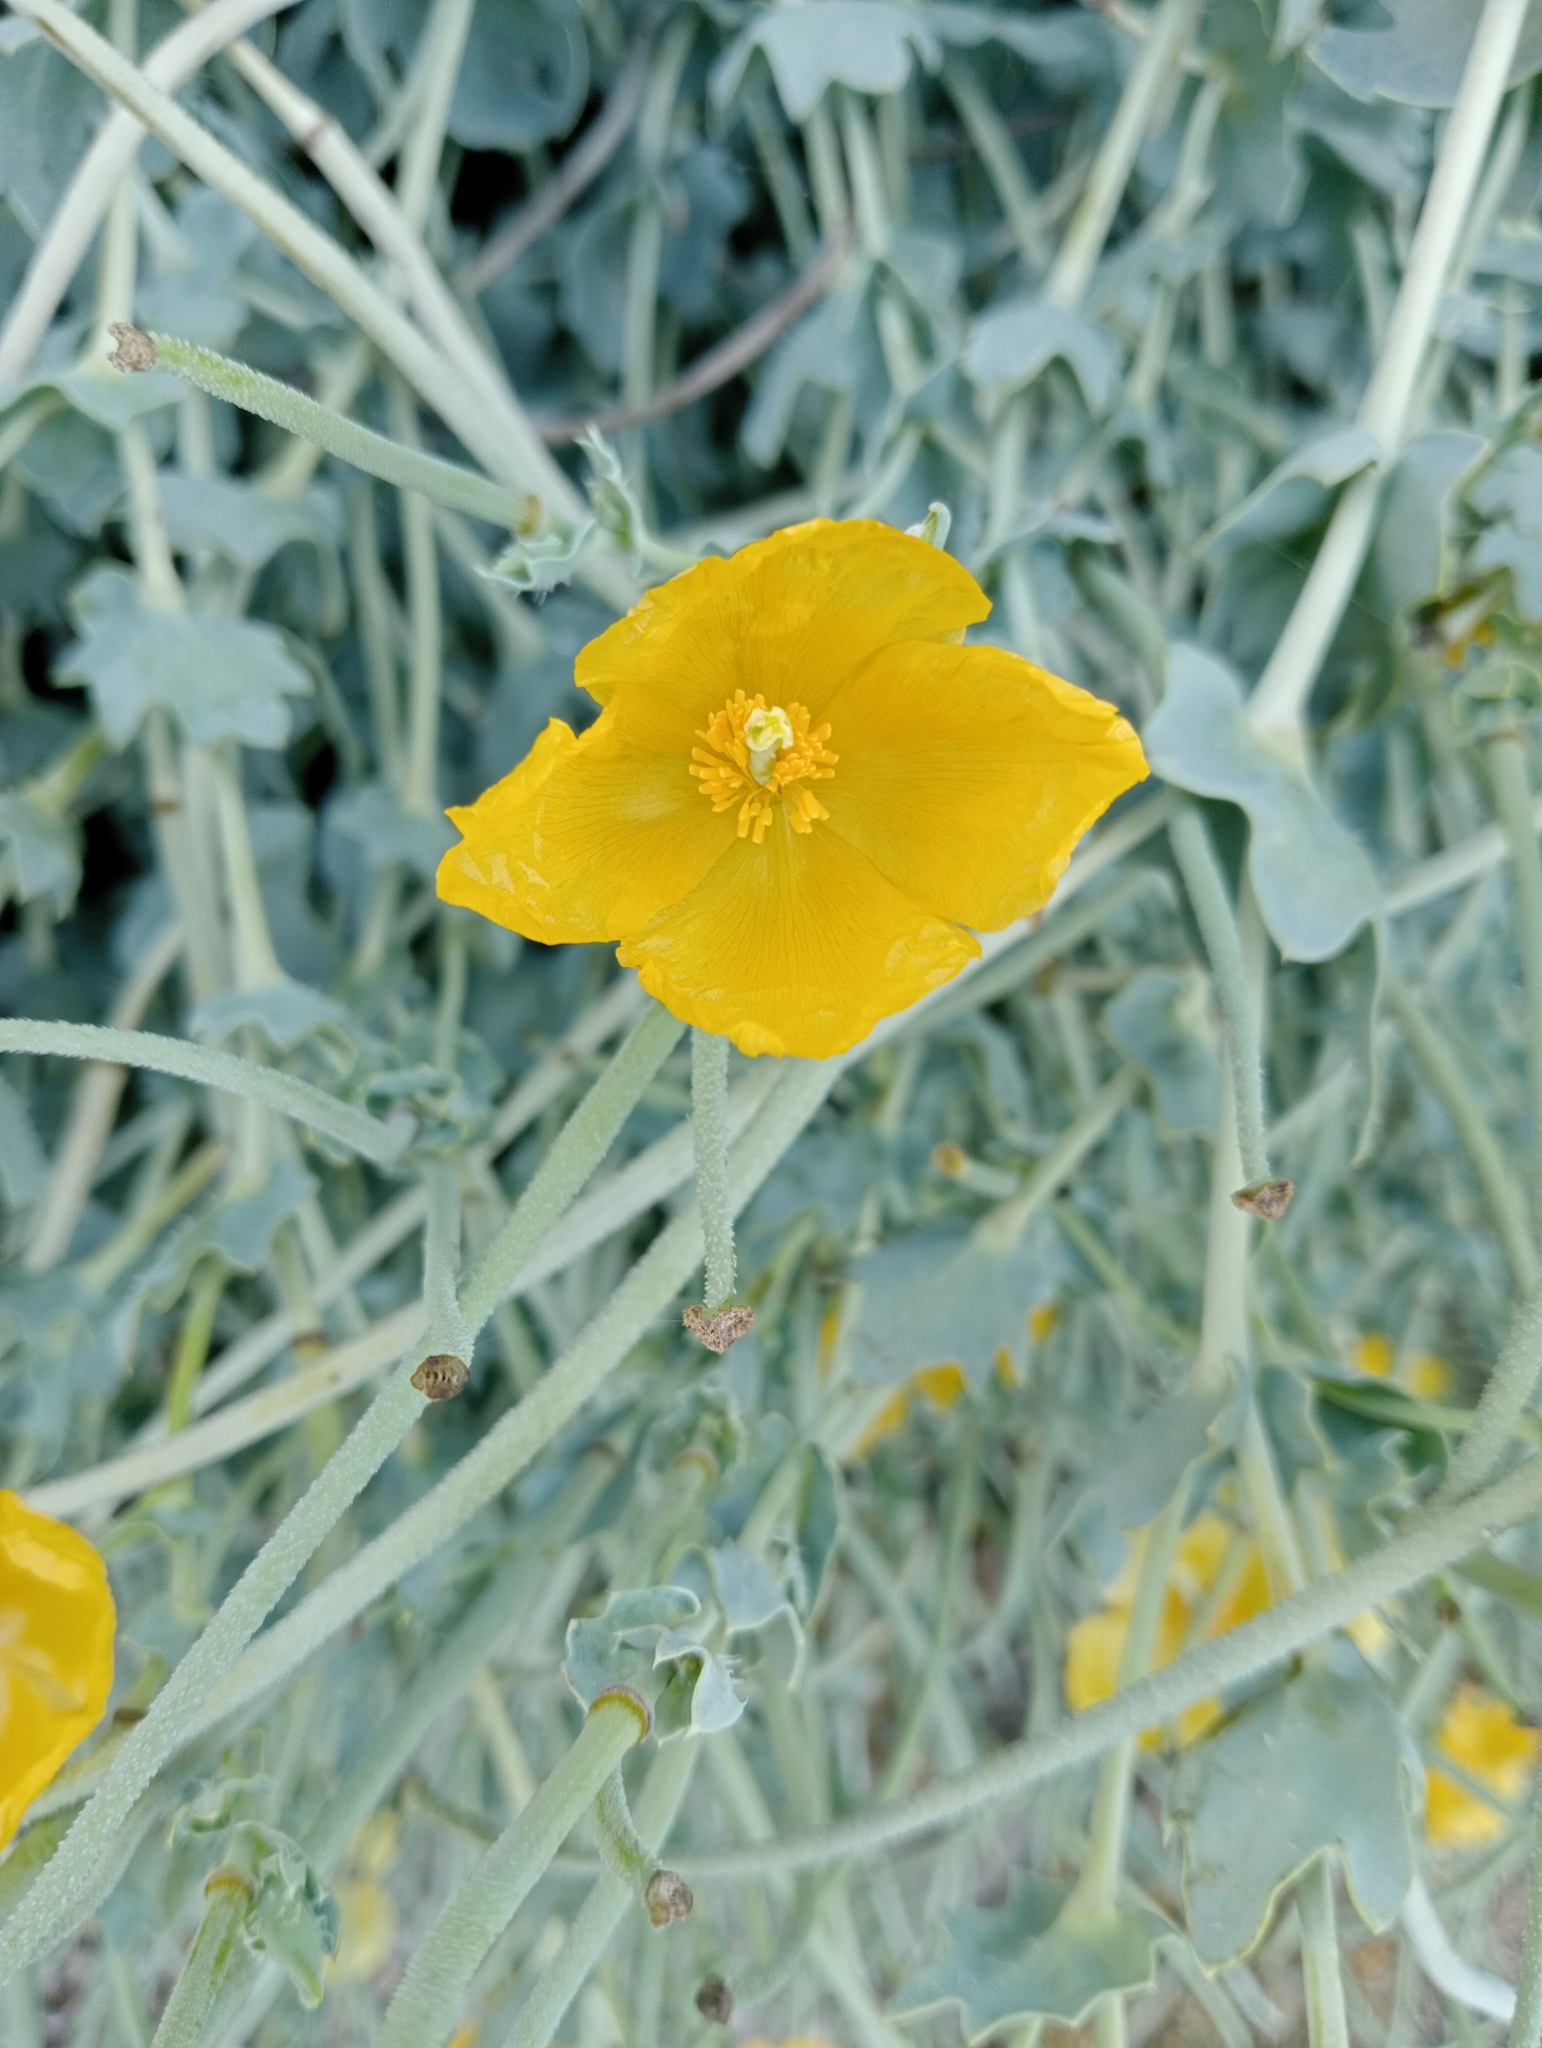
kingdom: Plantae
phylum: Tracheophyta
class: Magnoliopsida
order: Ranunculales
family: Papaveraceae
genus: Glaucium
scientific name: Glaucium flavum
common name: Yellow horned-poppy
